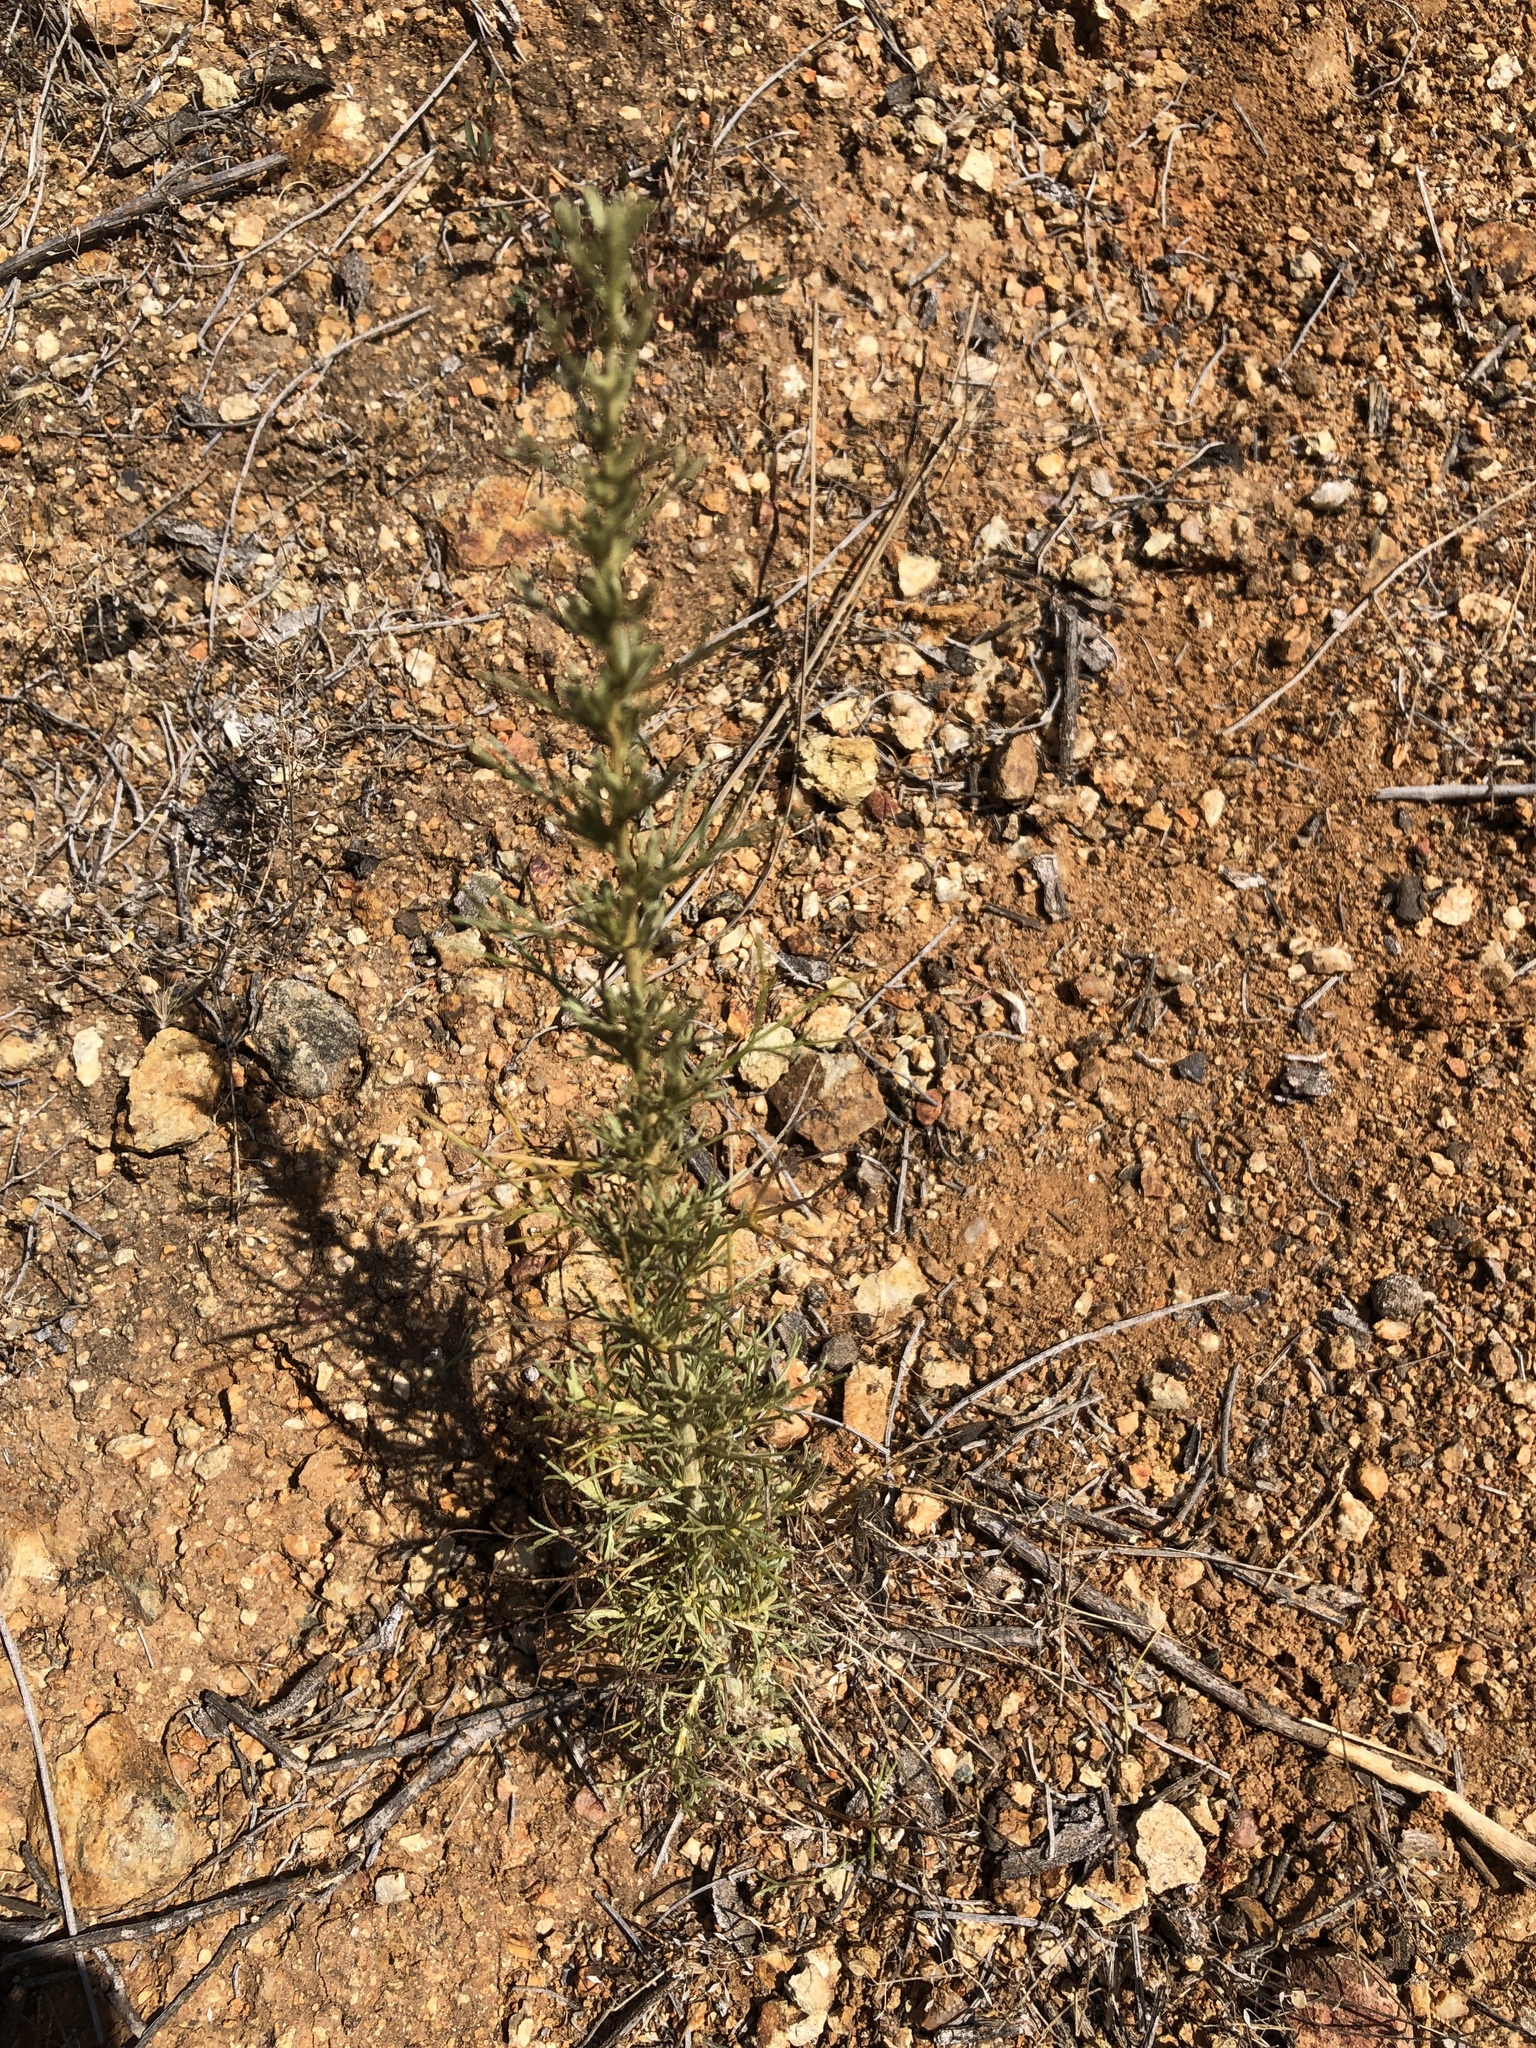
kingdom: Plantae
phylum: Tracheophyta
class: Magnoliopsida
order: Asterales
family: Asteraceae
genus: Artemisia
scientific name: Artemisia californica
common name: California sagebrush
